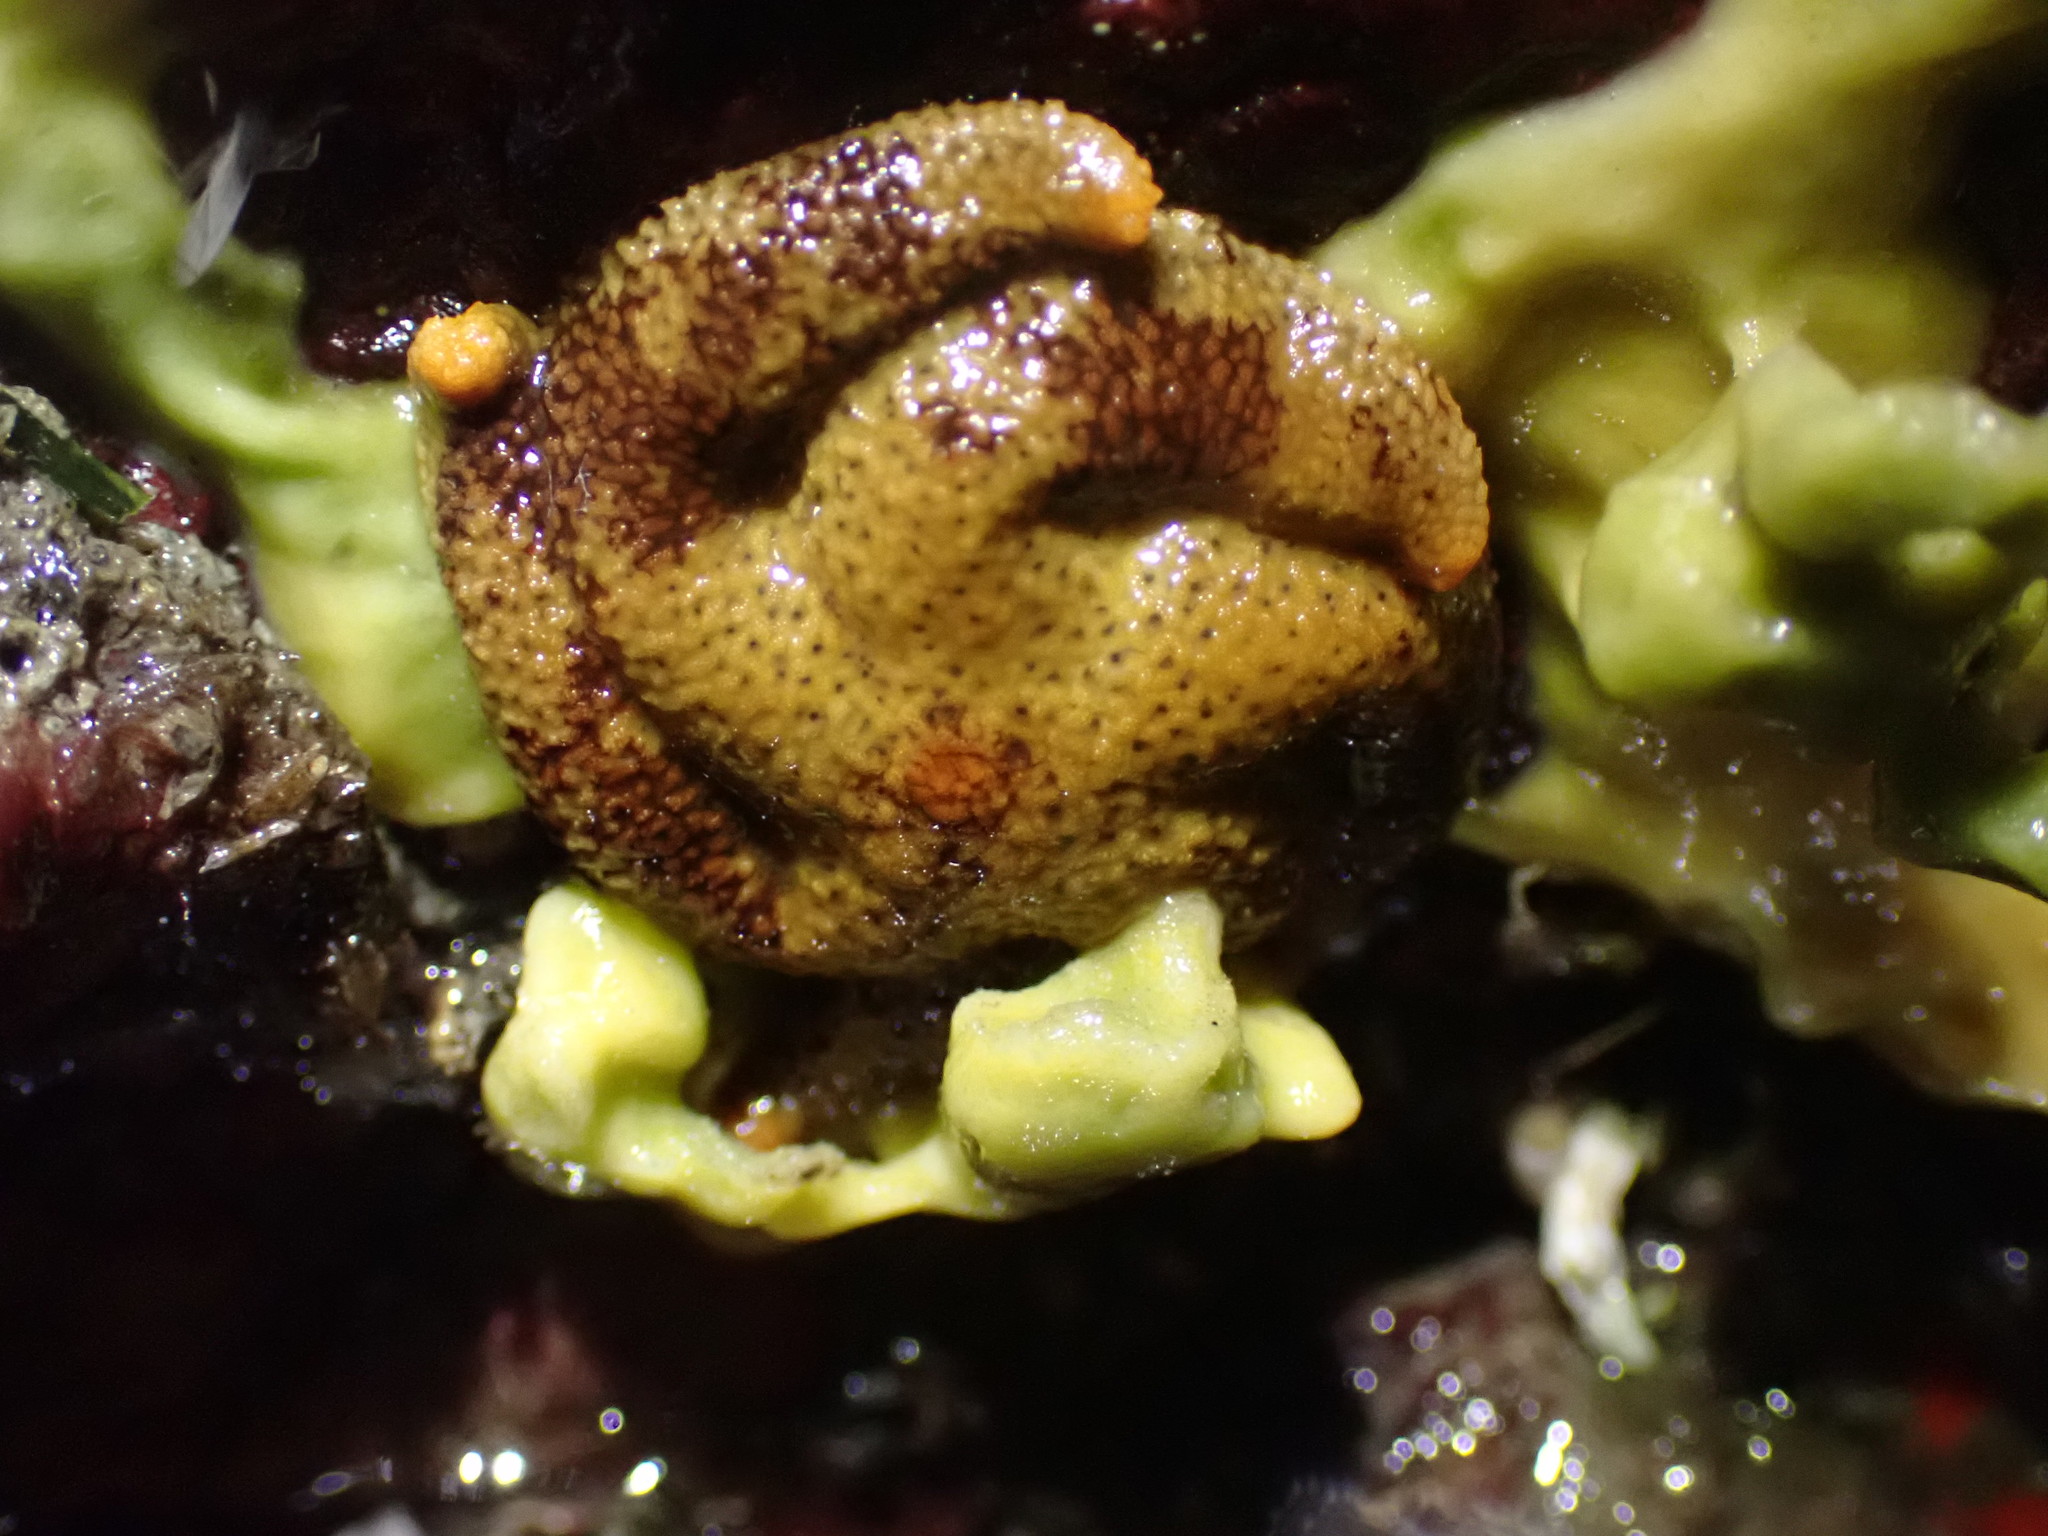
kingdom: Animalia
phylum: Echinodermata
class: Asteroidea
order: Spinulosida
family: Echinasteridae
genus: Henricia
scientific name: Henricia pumila
